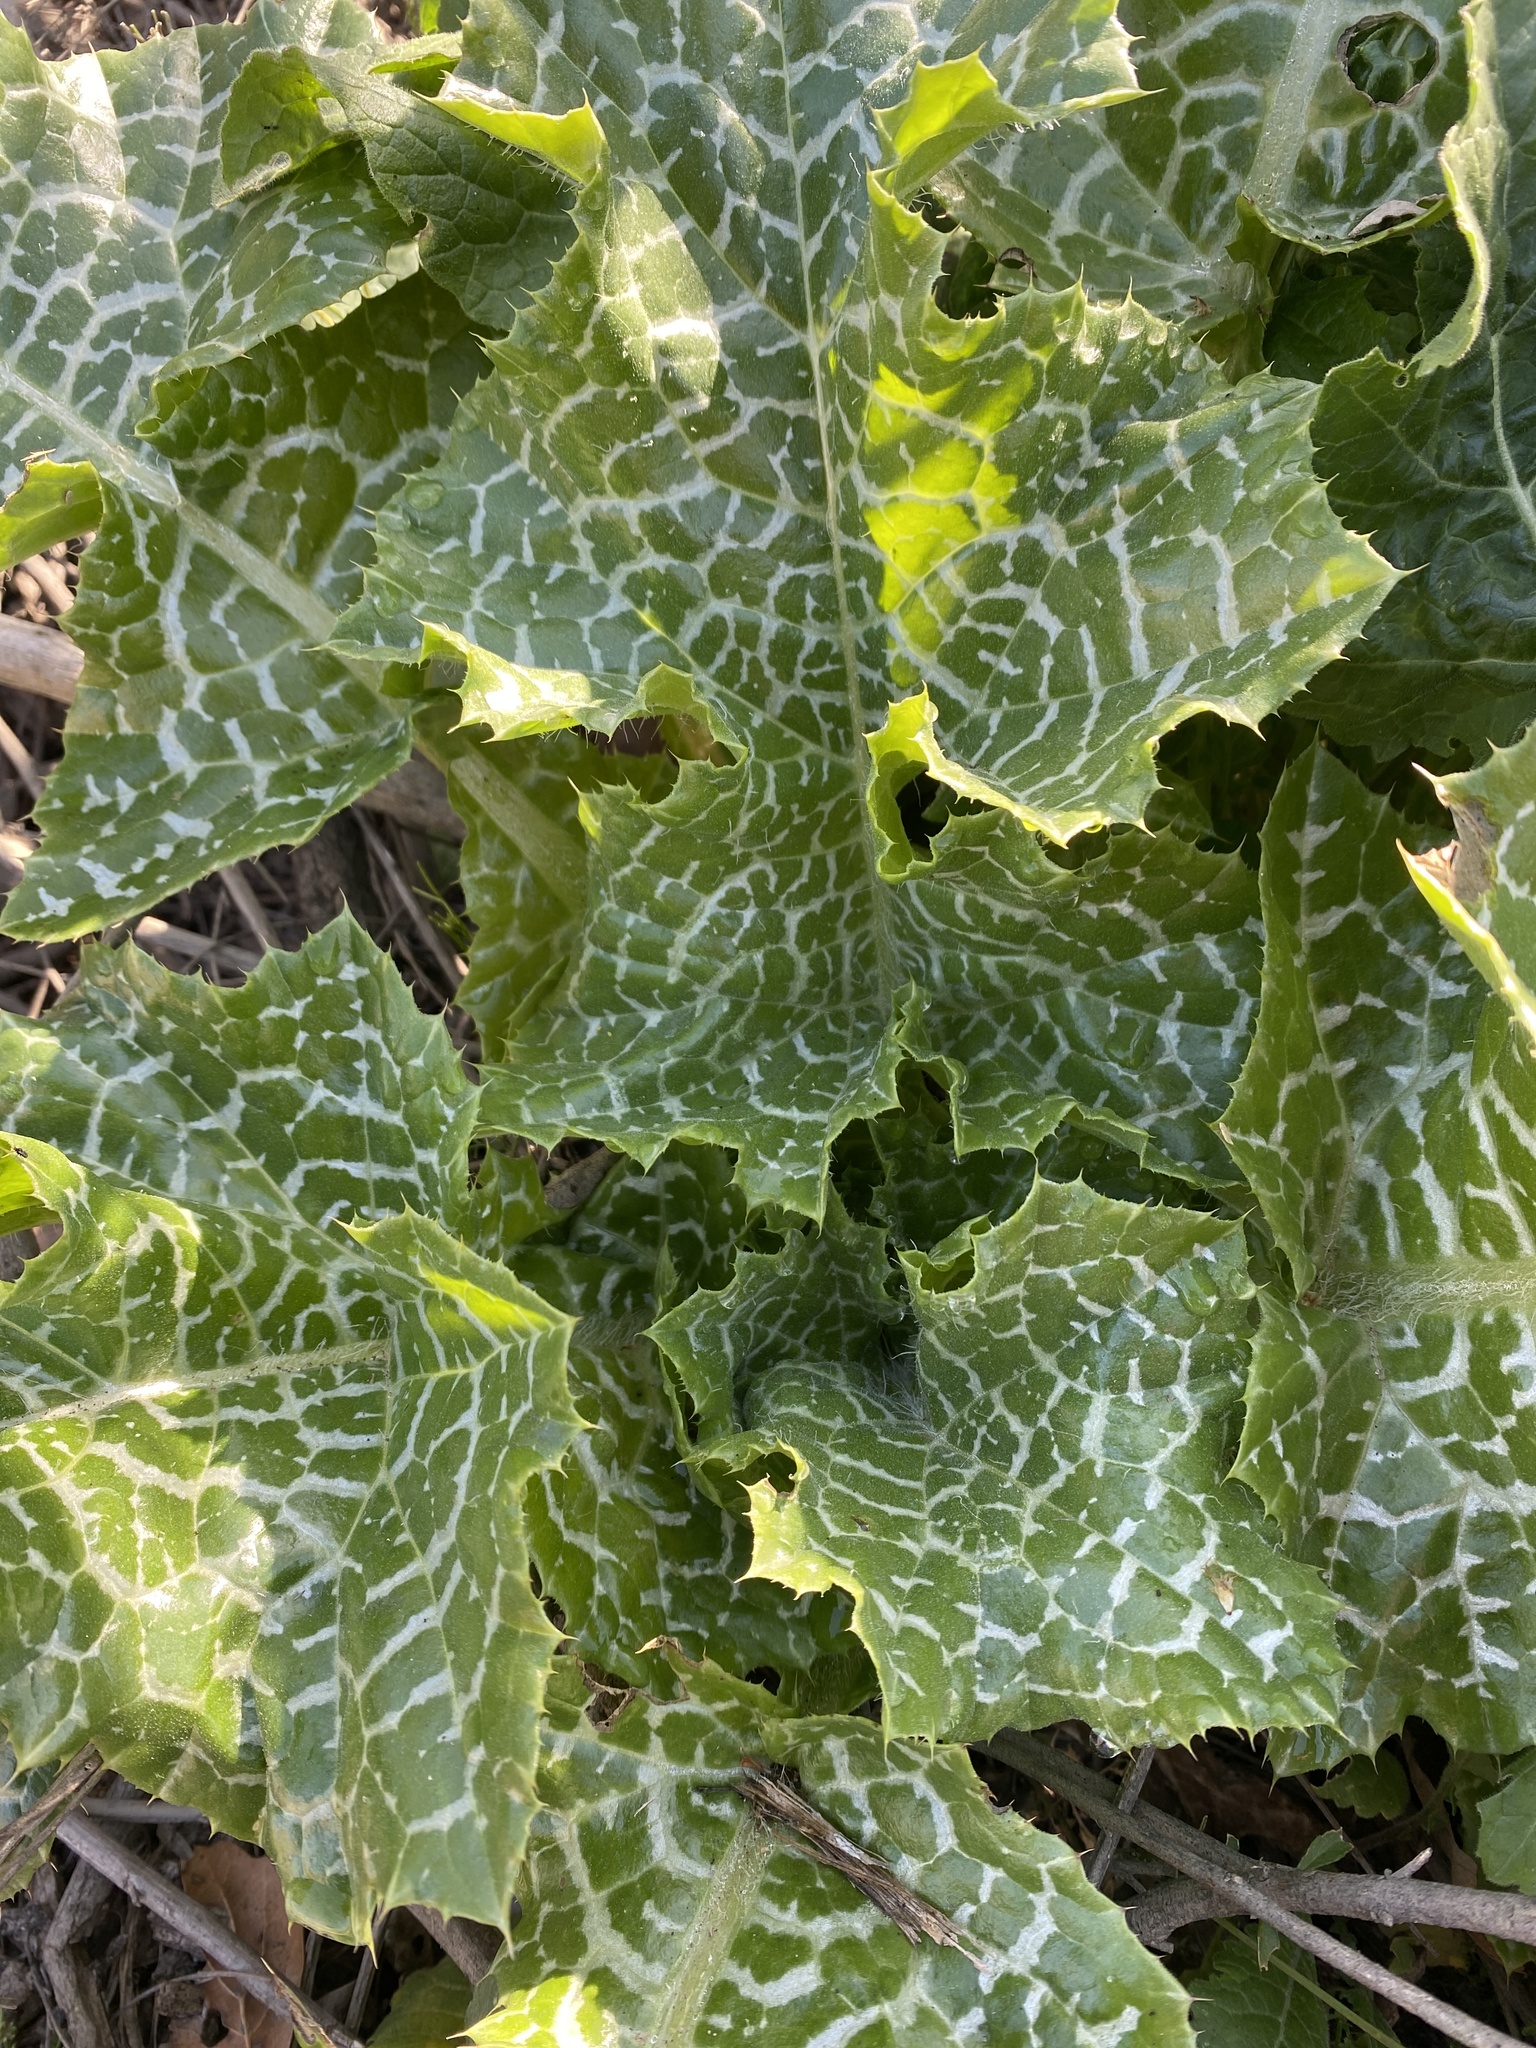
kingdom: Plantae
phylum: Tracheophyta
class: Magnoliopsida
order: Asterales
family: Asteraceae
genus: Silybum
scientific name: Silybum marianum
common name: Milk thistle
